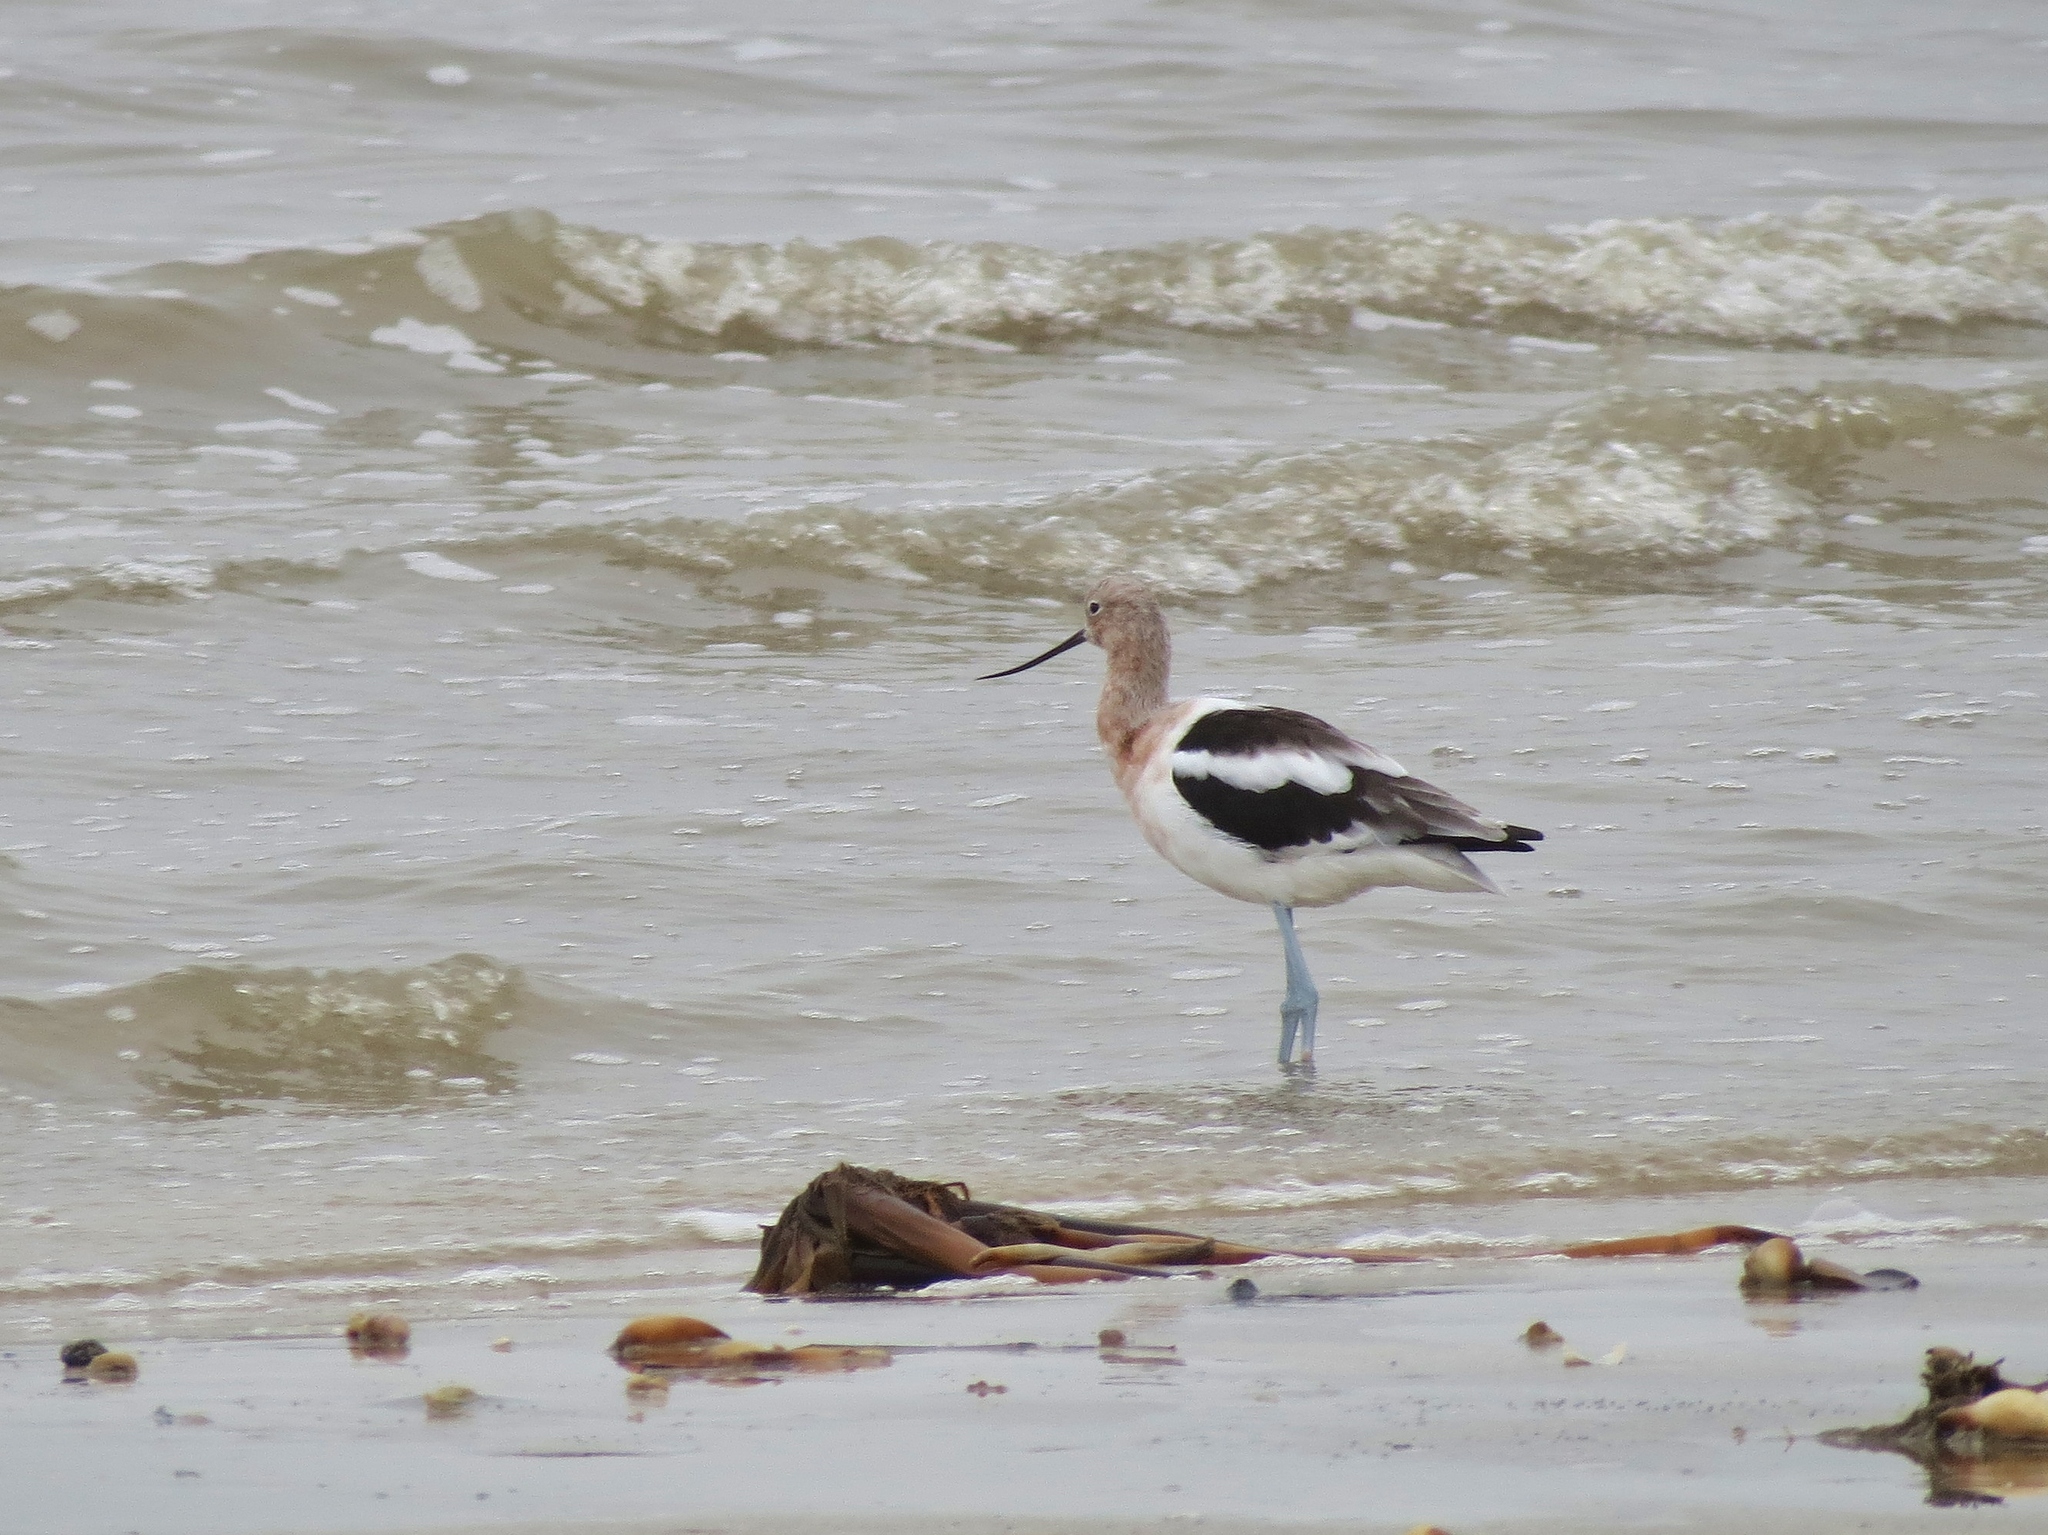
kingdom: Animalia
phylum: Chordata
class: Aves
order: Charadriiformes
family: Recurvirostridae
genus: Recurvirostra
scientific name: Recurvirostra americana
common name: American avocet
